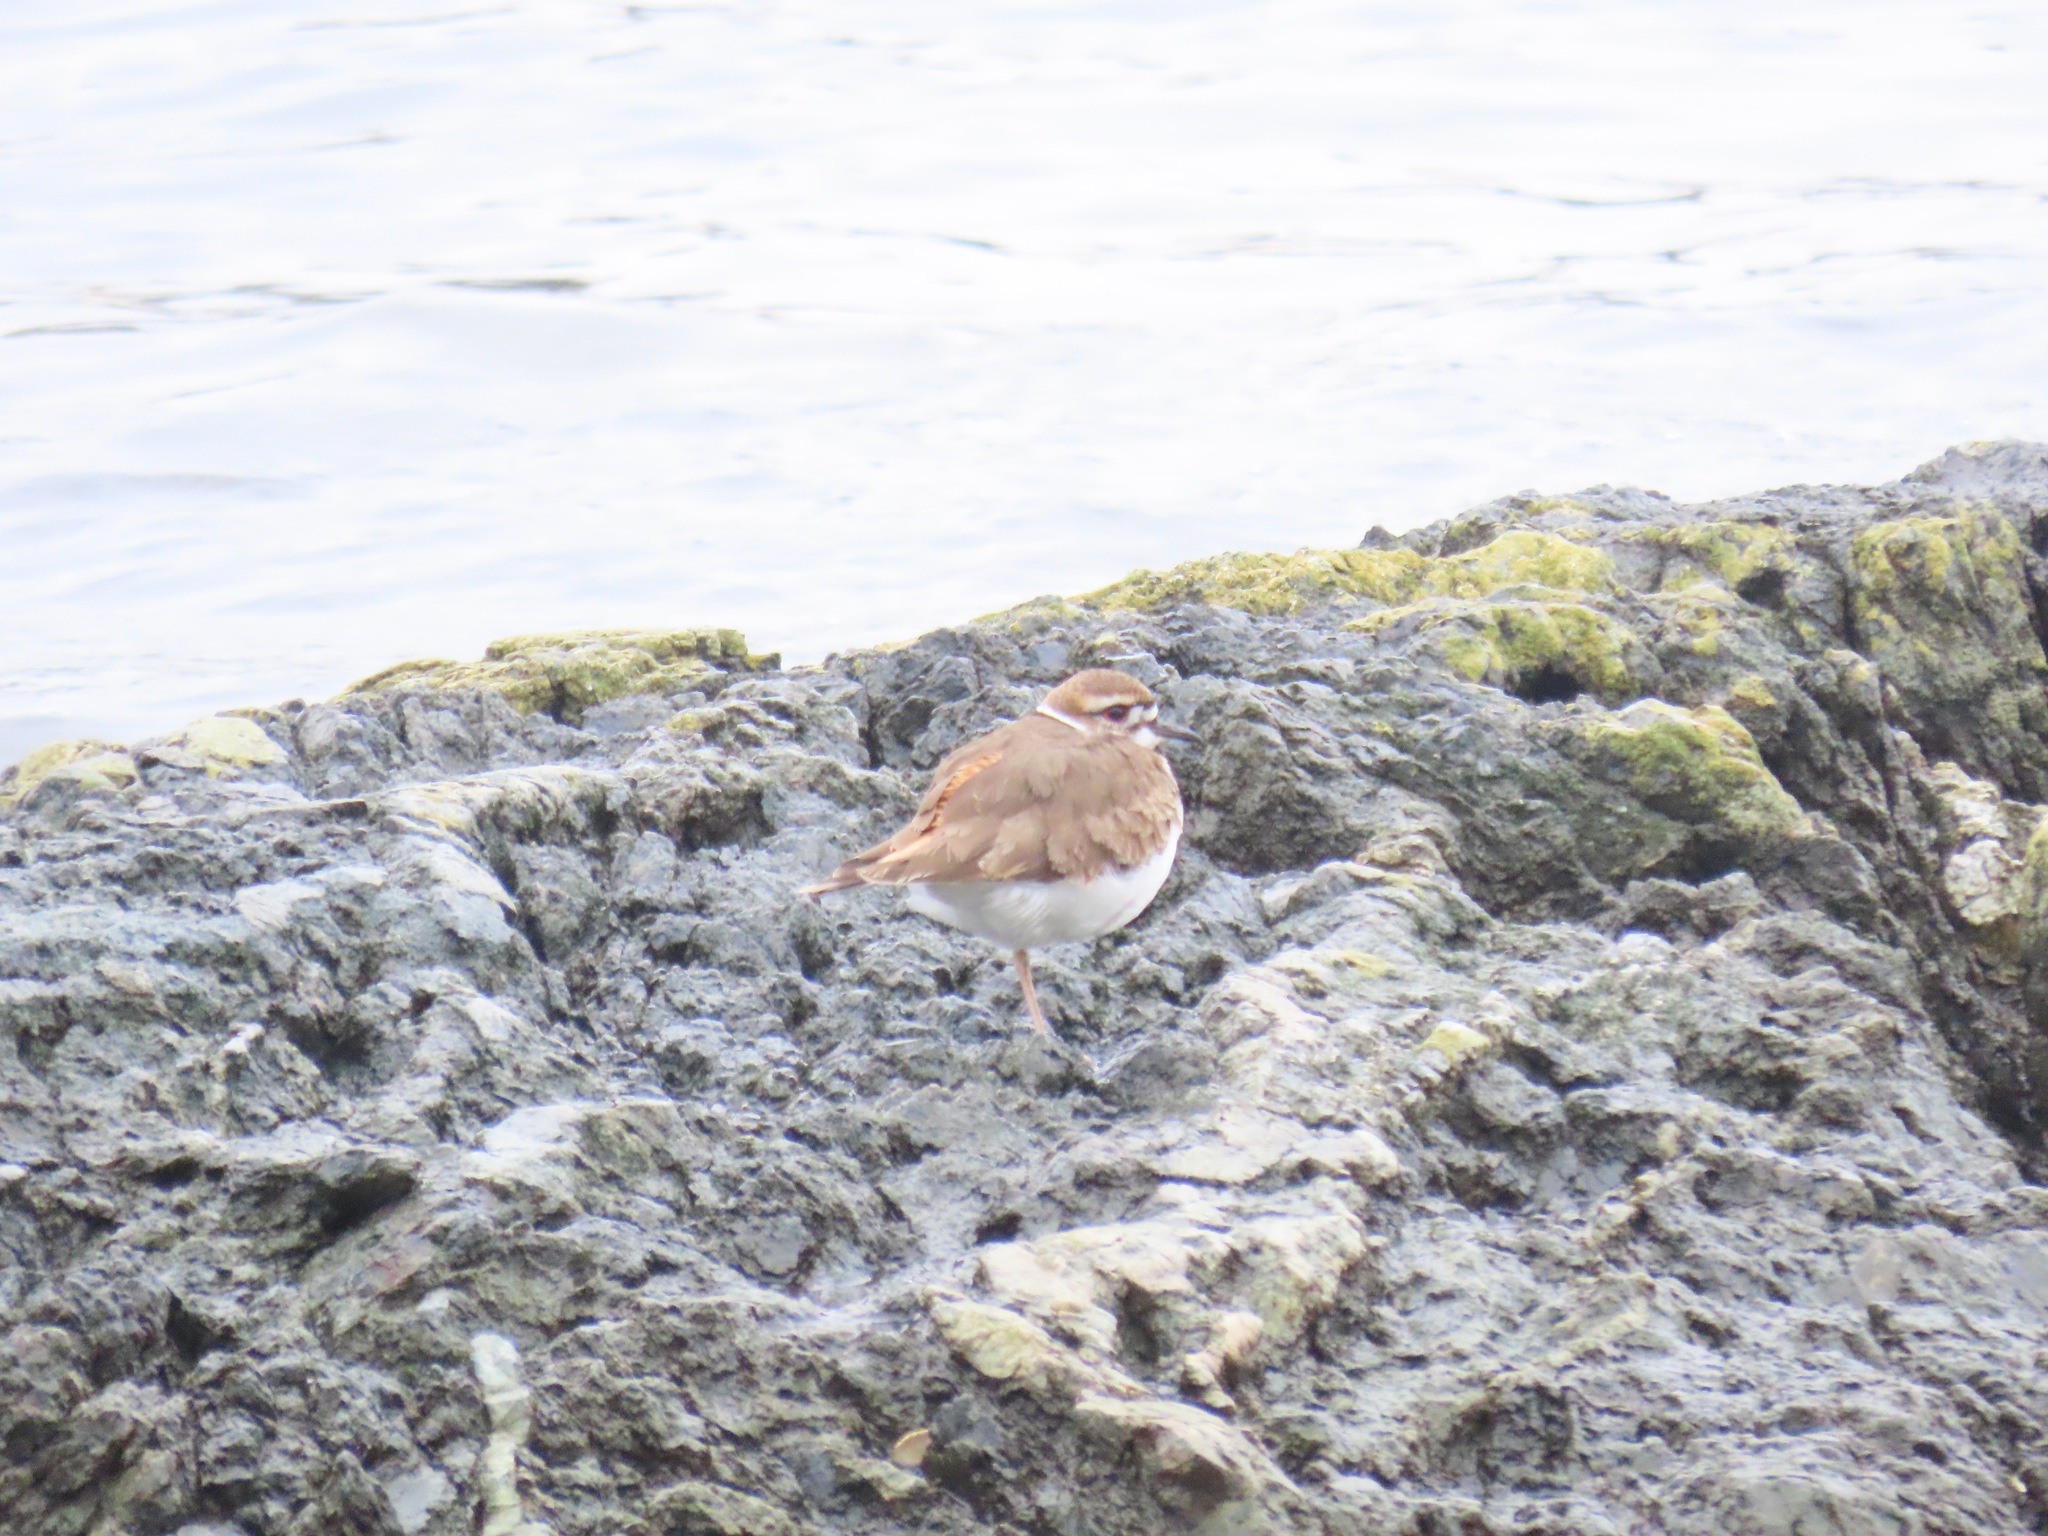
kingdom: Animalia
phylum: Chordata
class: Aves
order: Charadriiformes
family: Charadriidae
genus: Charadrius
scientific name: Charadrius vociferus
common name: Killdeer
